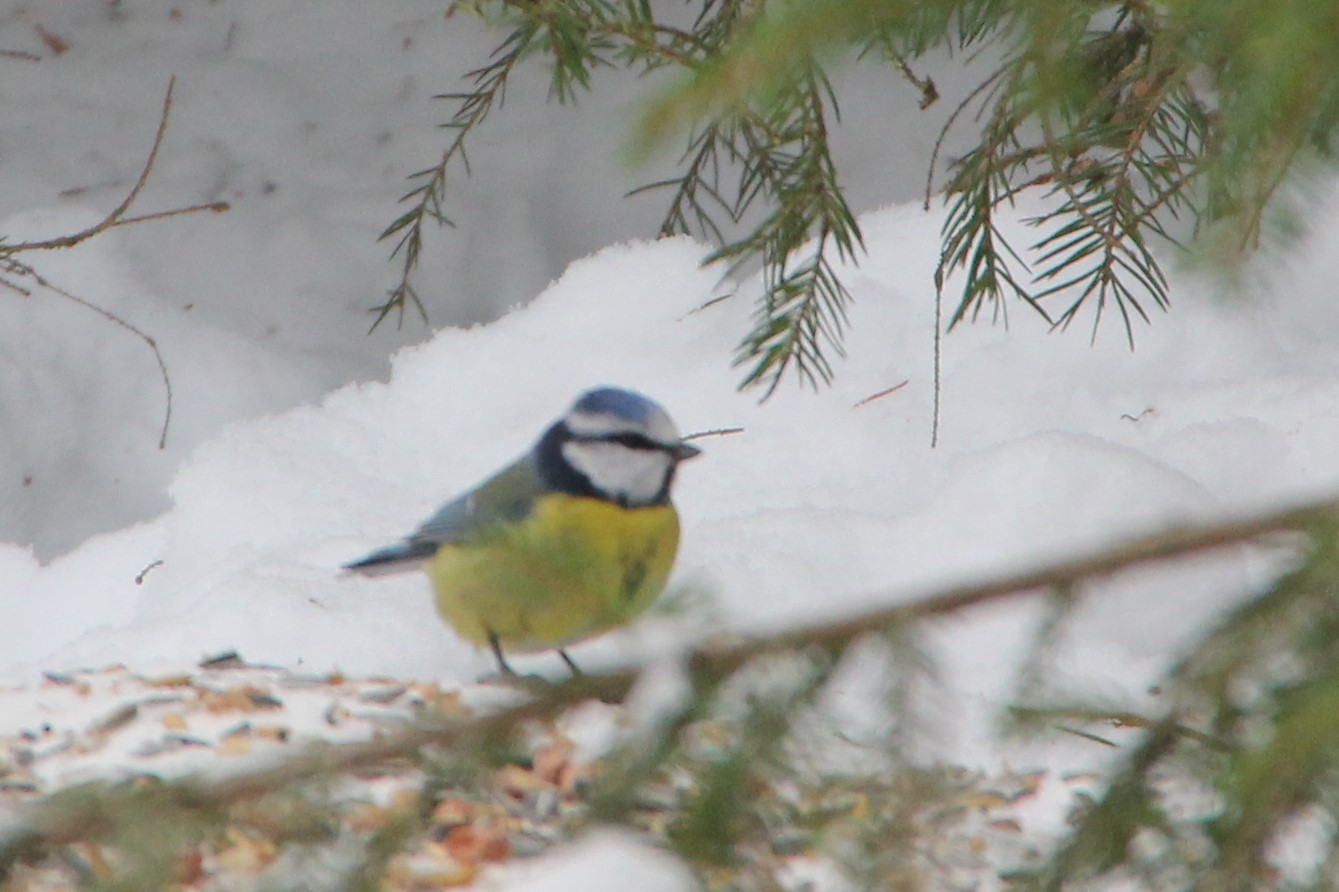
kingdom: Animalia
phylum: Chordata
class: Aves
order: Passeriformes
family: Paridae
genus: Cyanistes
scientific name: Cyanistes caeruleus
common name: Eurasian blue tit
